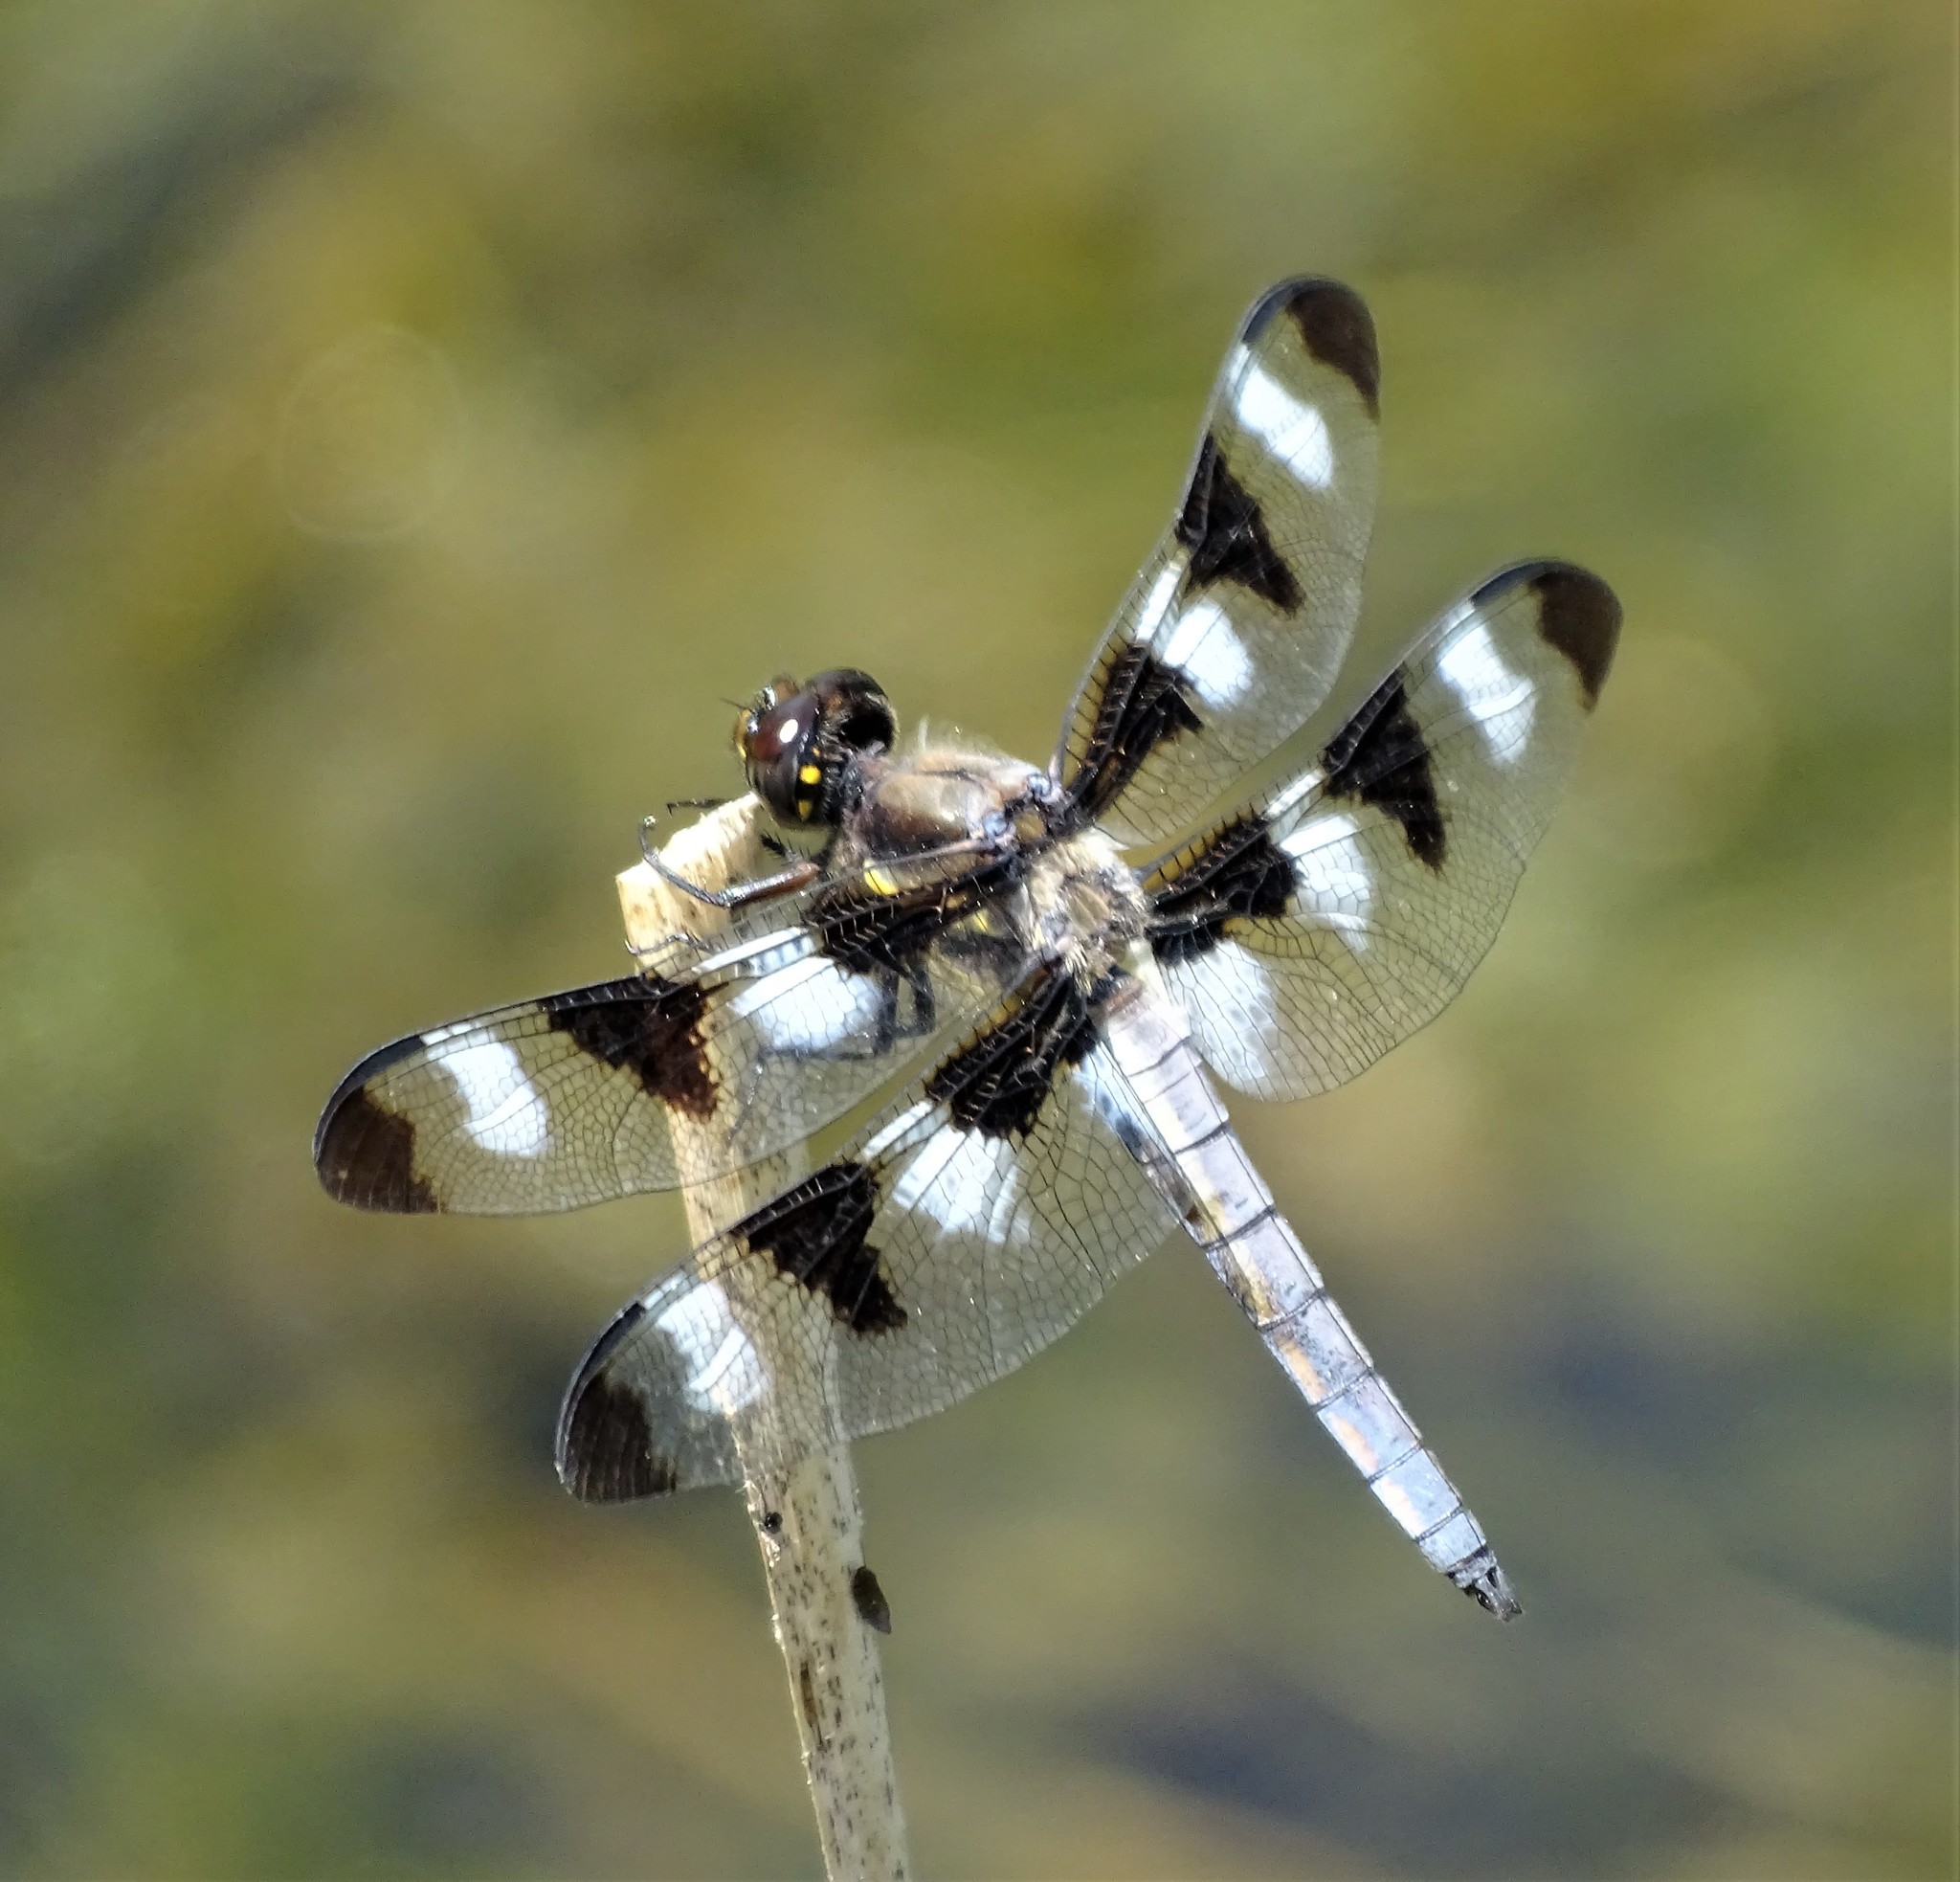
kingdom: Animalia
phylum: Arthropoda
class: Insecta
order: Odonata
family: Libellulidae
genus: Libellula
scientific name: Libellula pulchella
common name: Twelve-spotted skimmer
